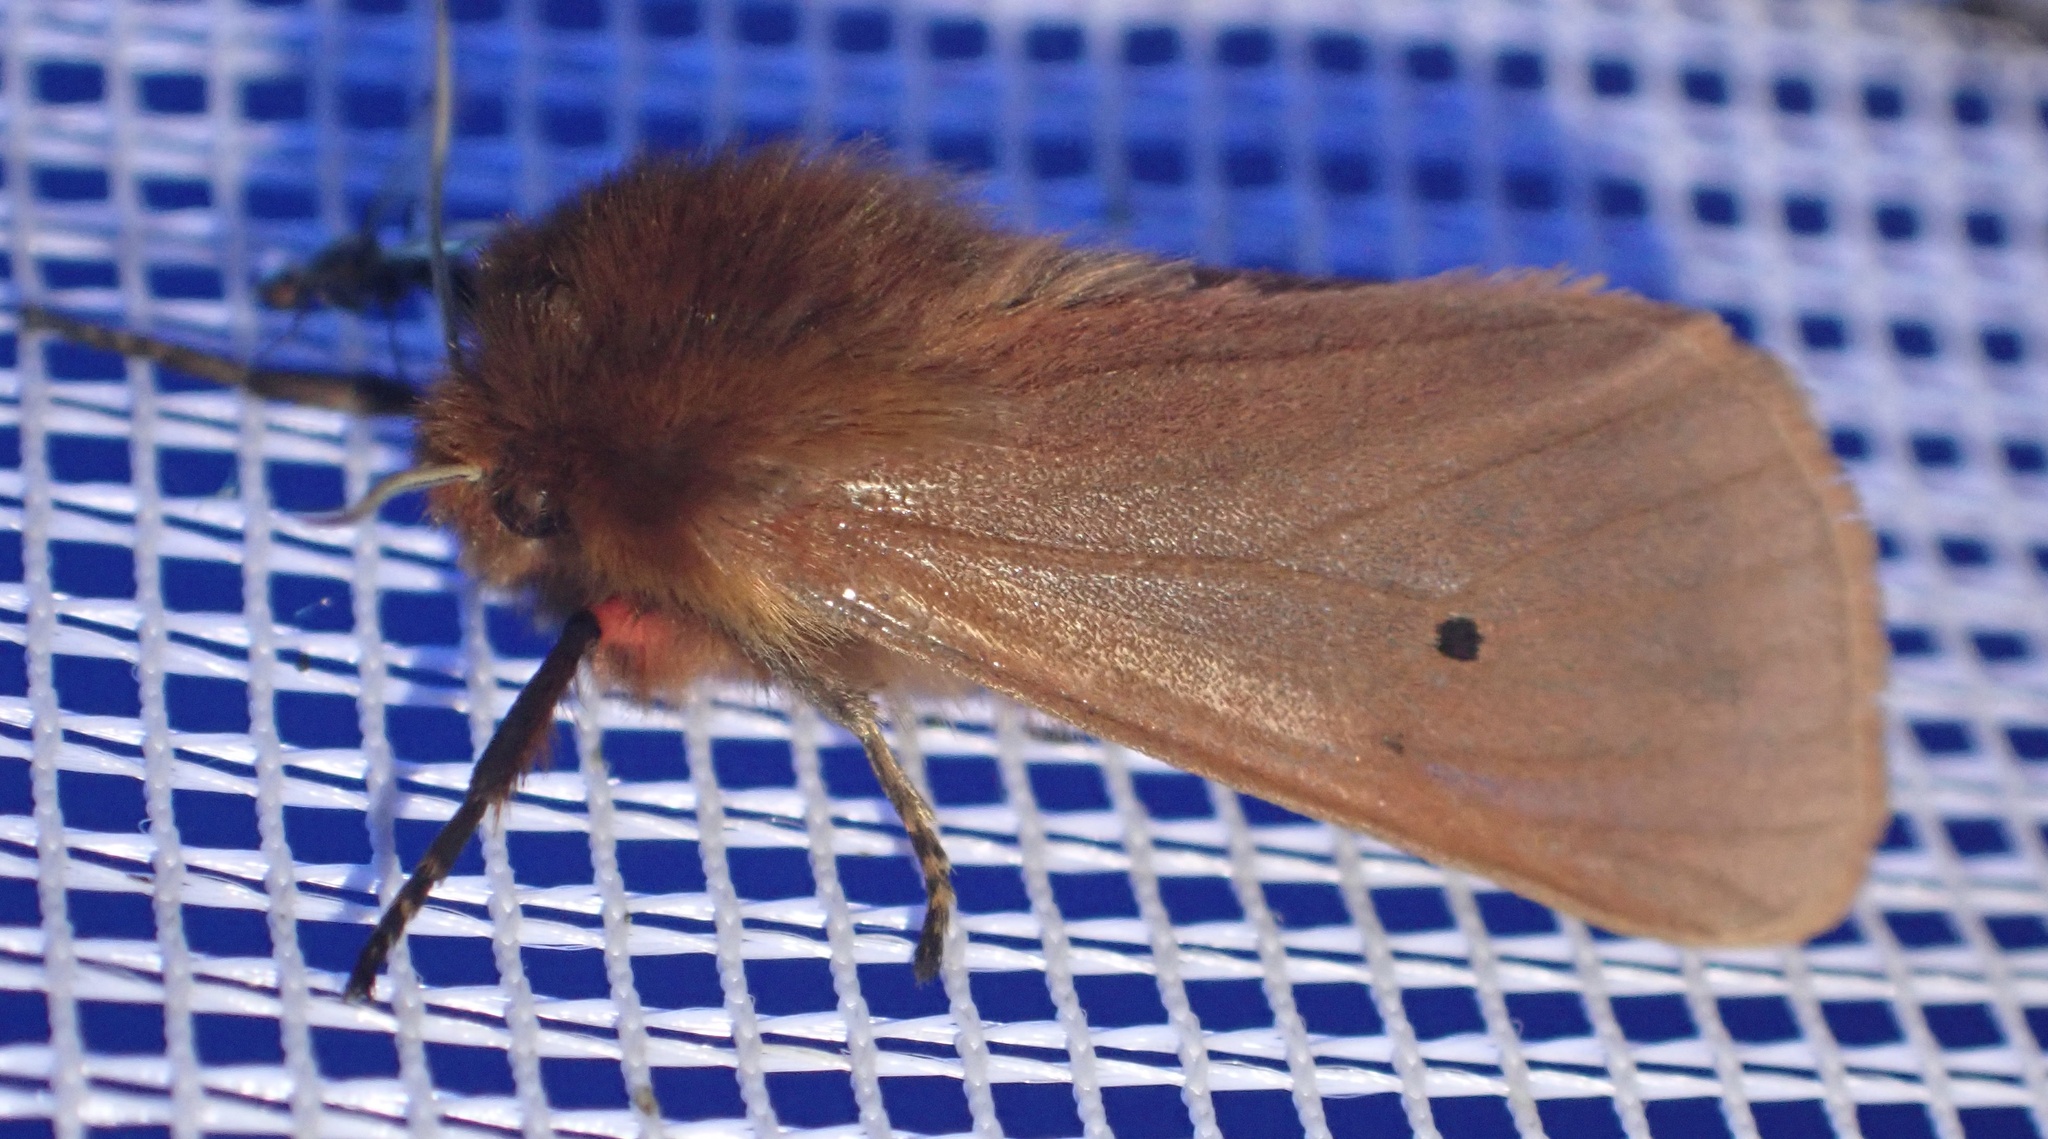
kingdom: Animalia
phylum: Arthropoda
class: Insecta
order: Lepidoptera
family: Erebidae
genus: Phragmatobia
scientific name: Phragmatobia fuliginosa
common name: Ruby tiger
